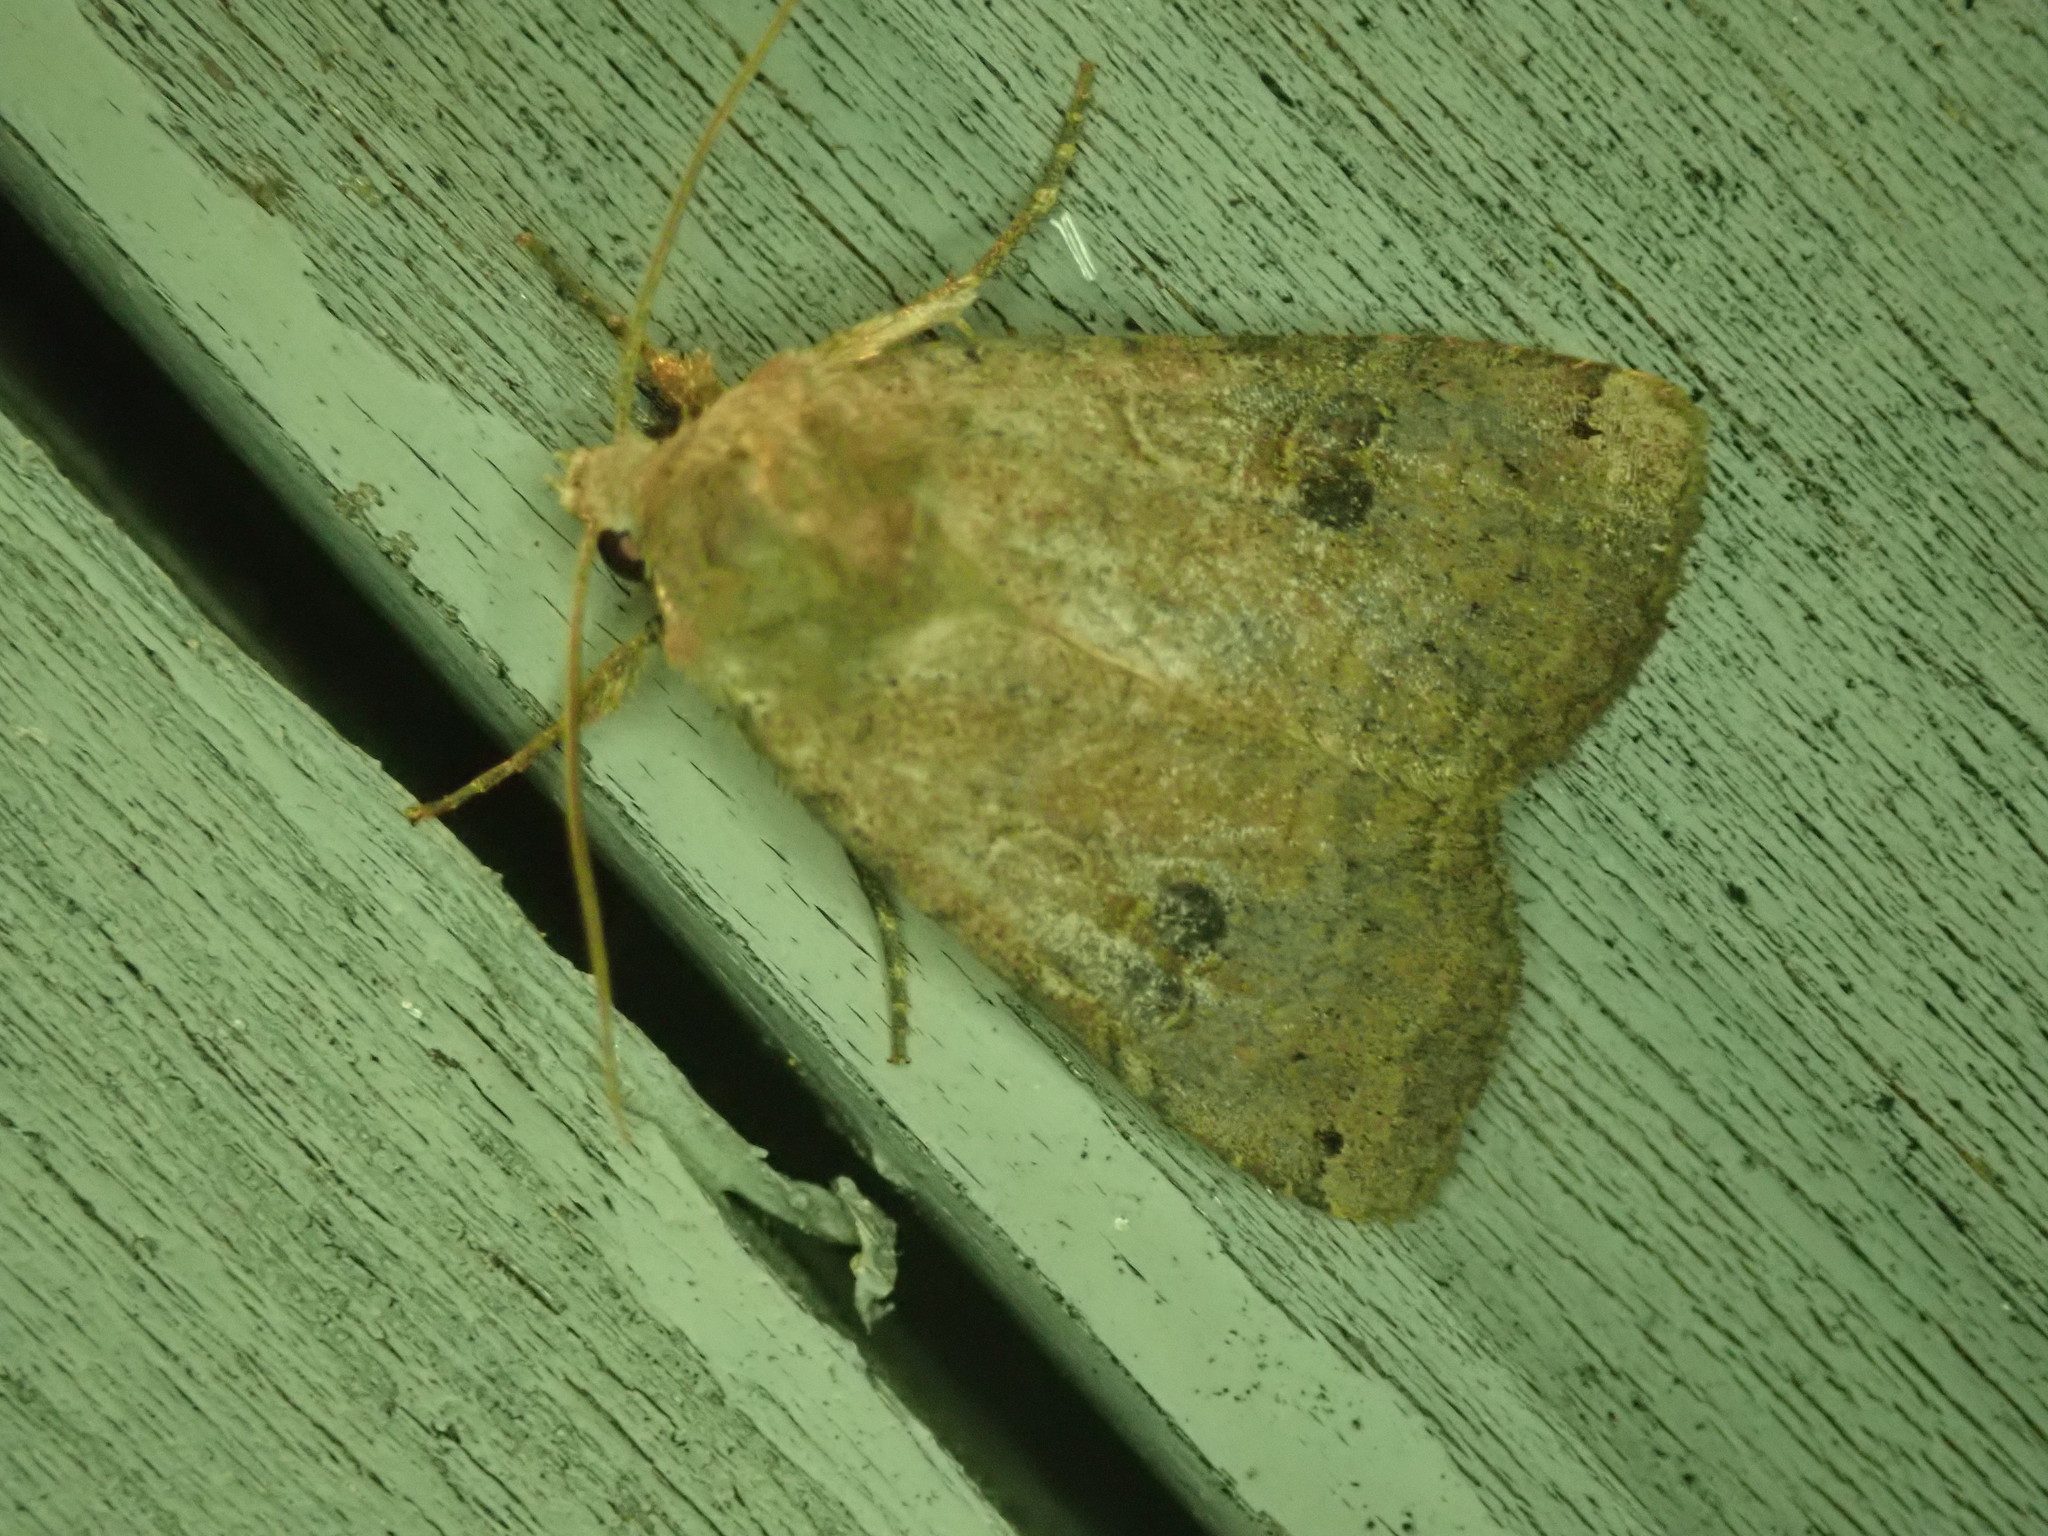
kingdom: Animalia
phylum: Arthropoda
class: Insecta
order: Lepidoptera
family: Noctuidae
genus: Xestia
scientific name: Xestia smithii
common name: Smith's dart
